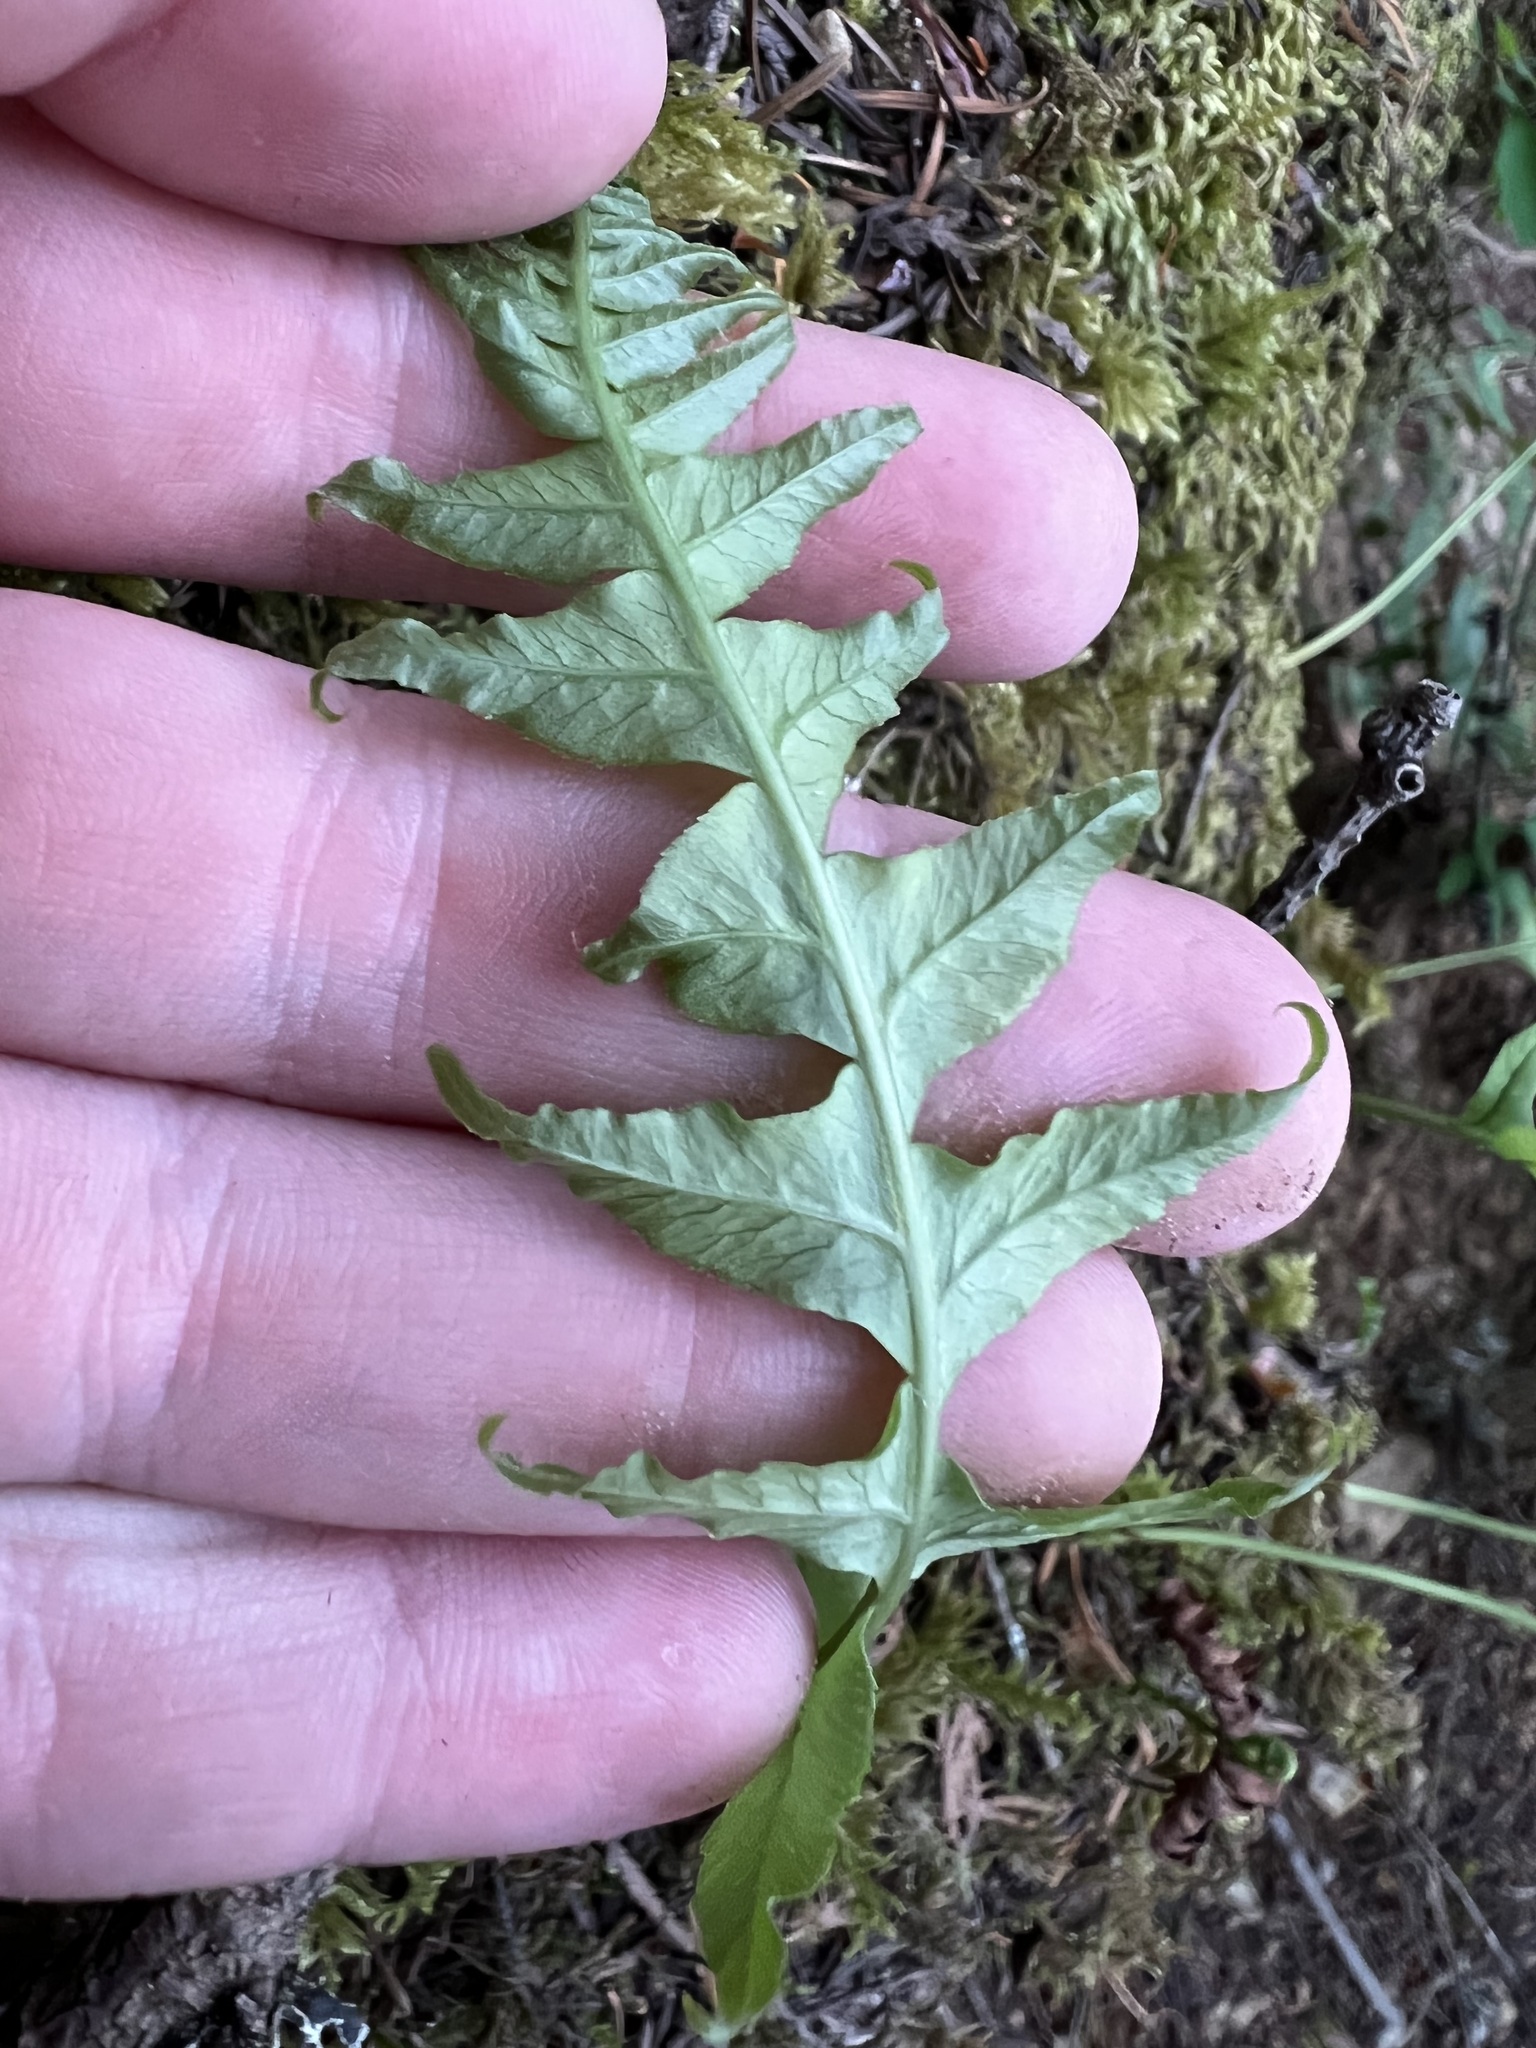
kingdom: Plantae
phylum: Tracheophyta
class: Polypodiopsida
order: Polypodiales
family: Polypodiaceae
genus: Polypodium
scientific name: Polypodium glycyrrhiza
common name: Licorice fern
